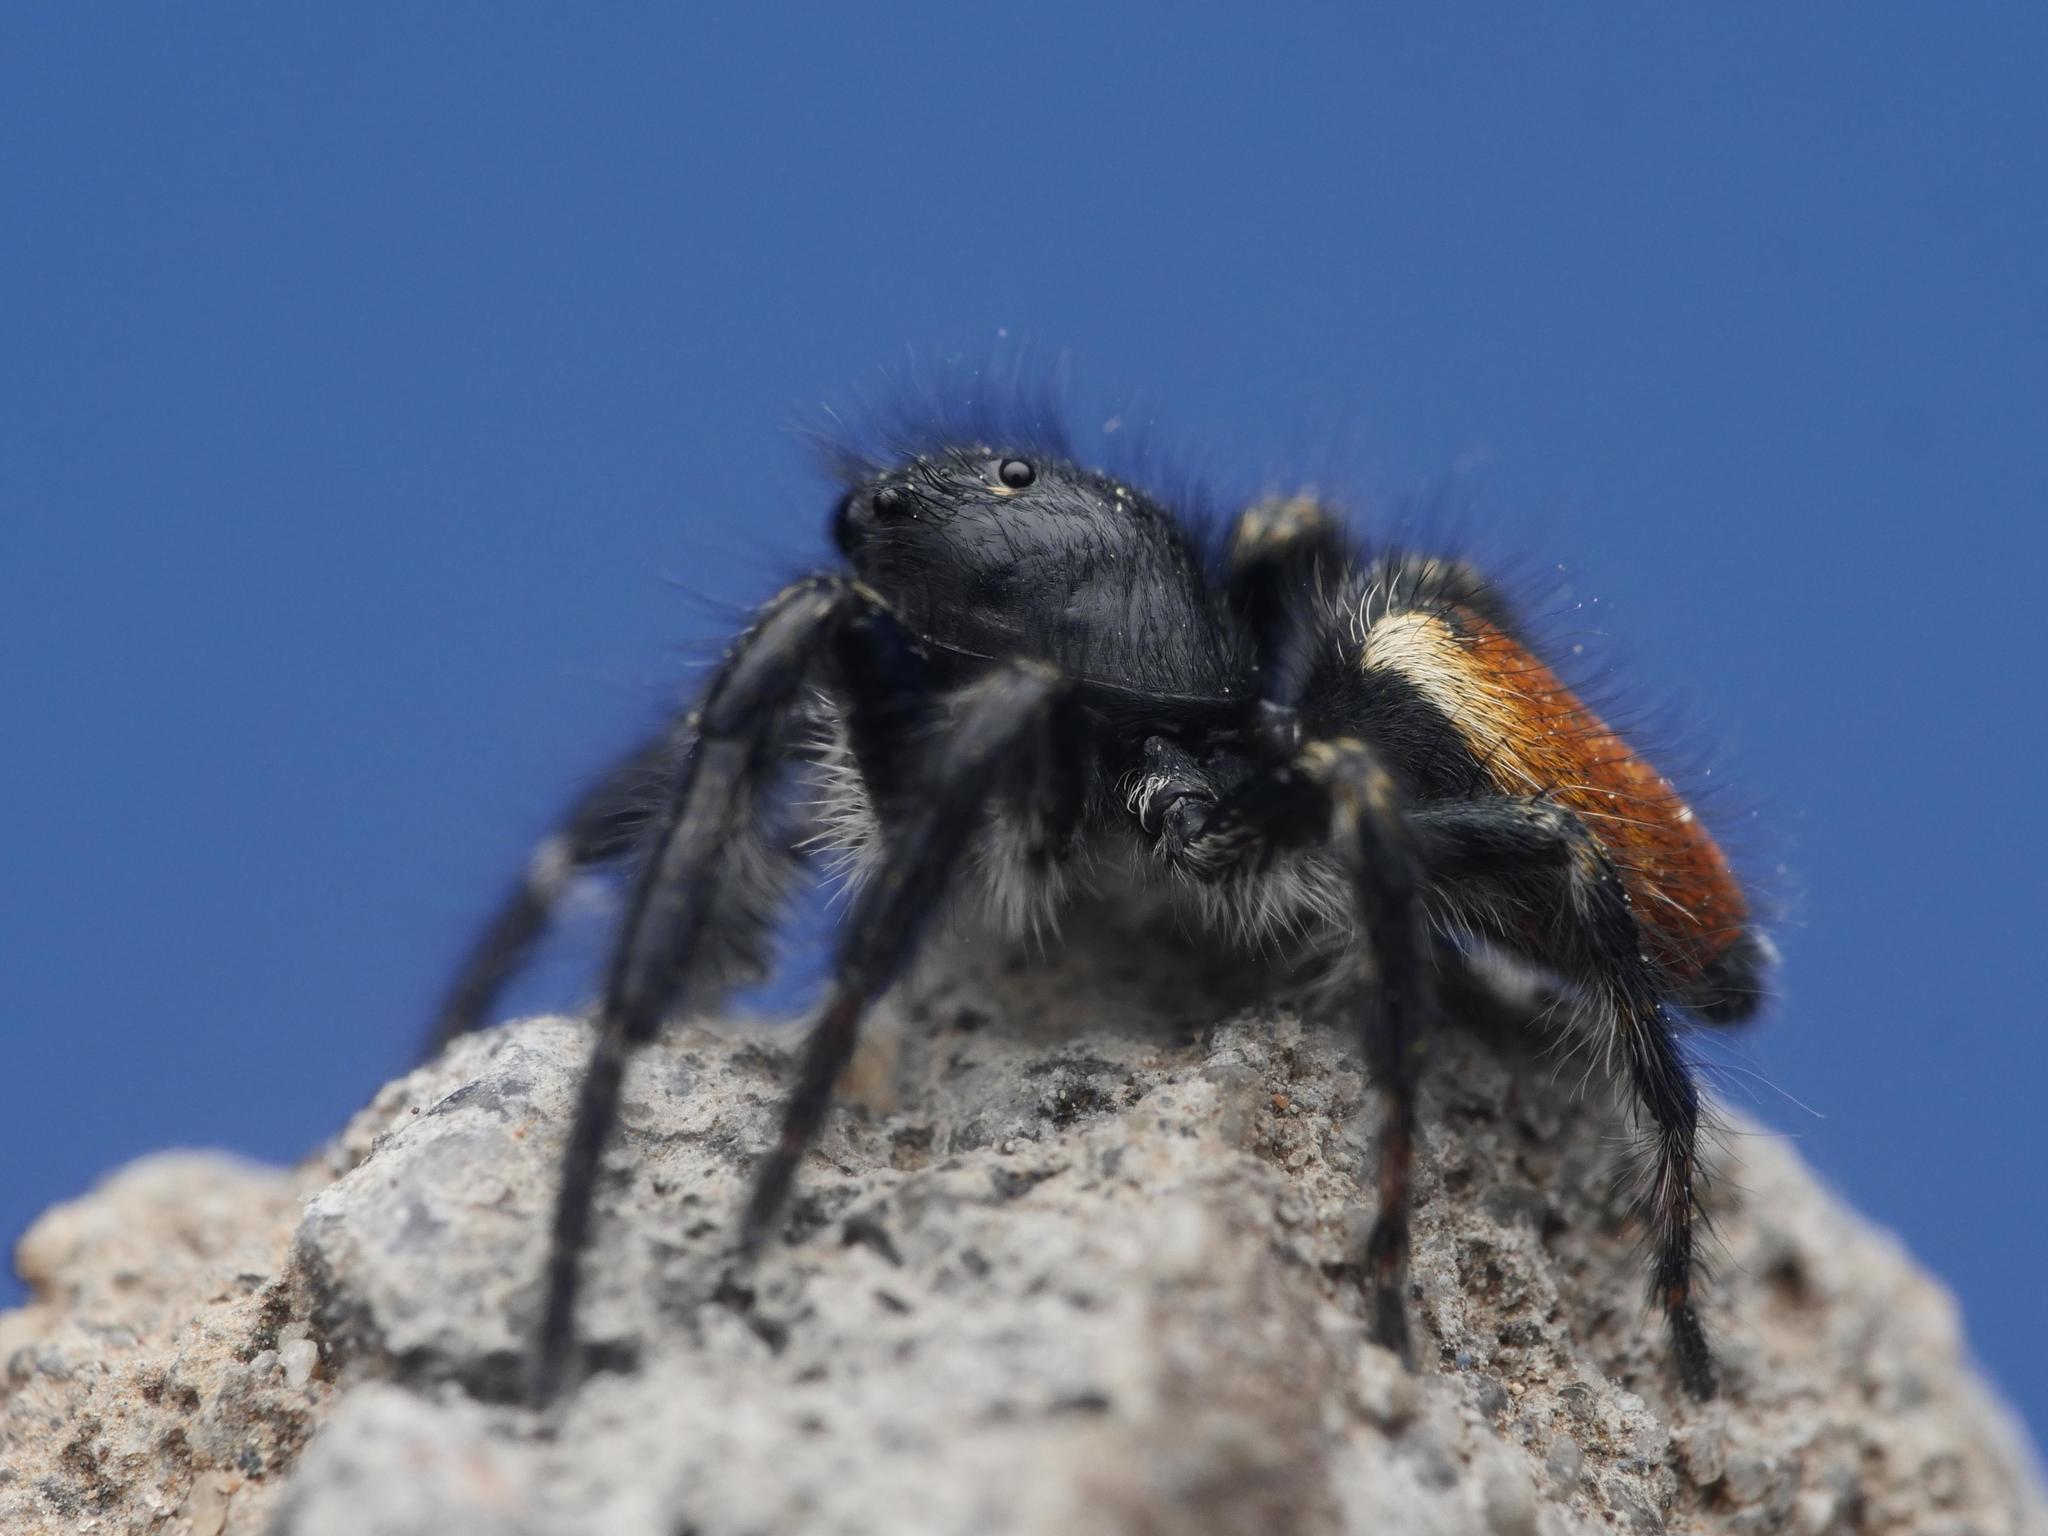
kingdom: Animalia
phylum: Arthropoda
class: Arachnida
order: Araneae
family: Salticidae
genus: Carrhotus
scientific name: Carrhotus xanthogramma
